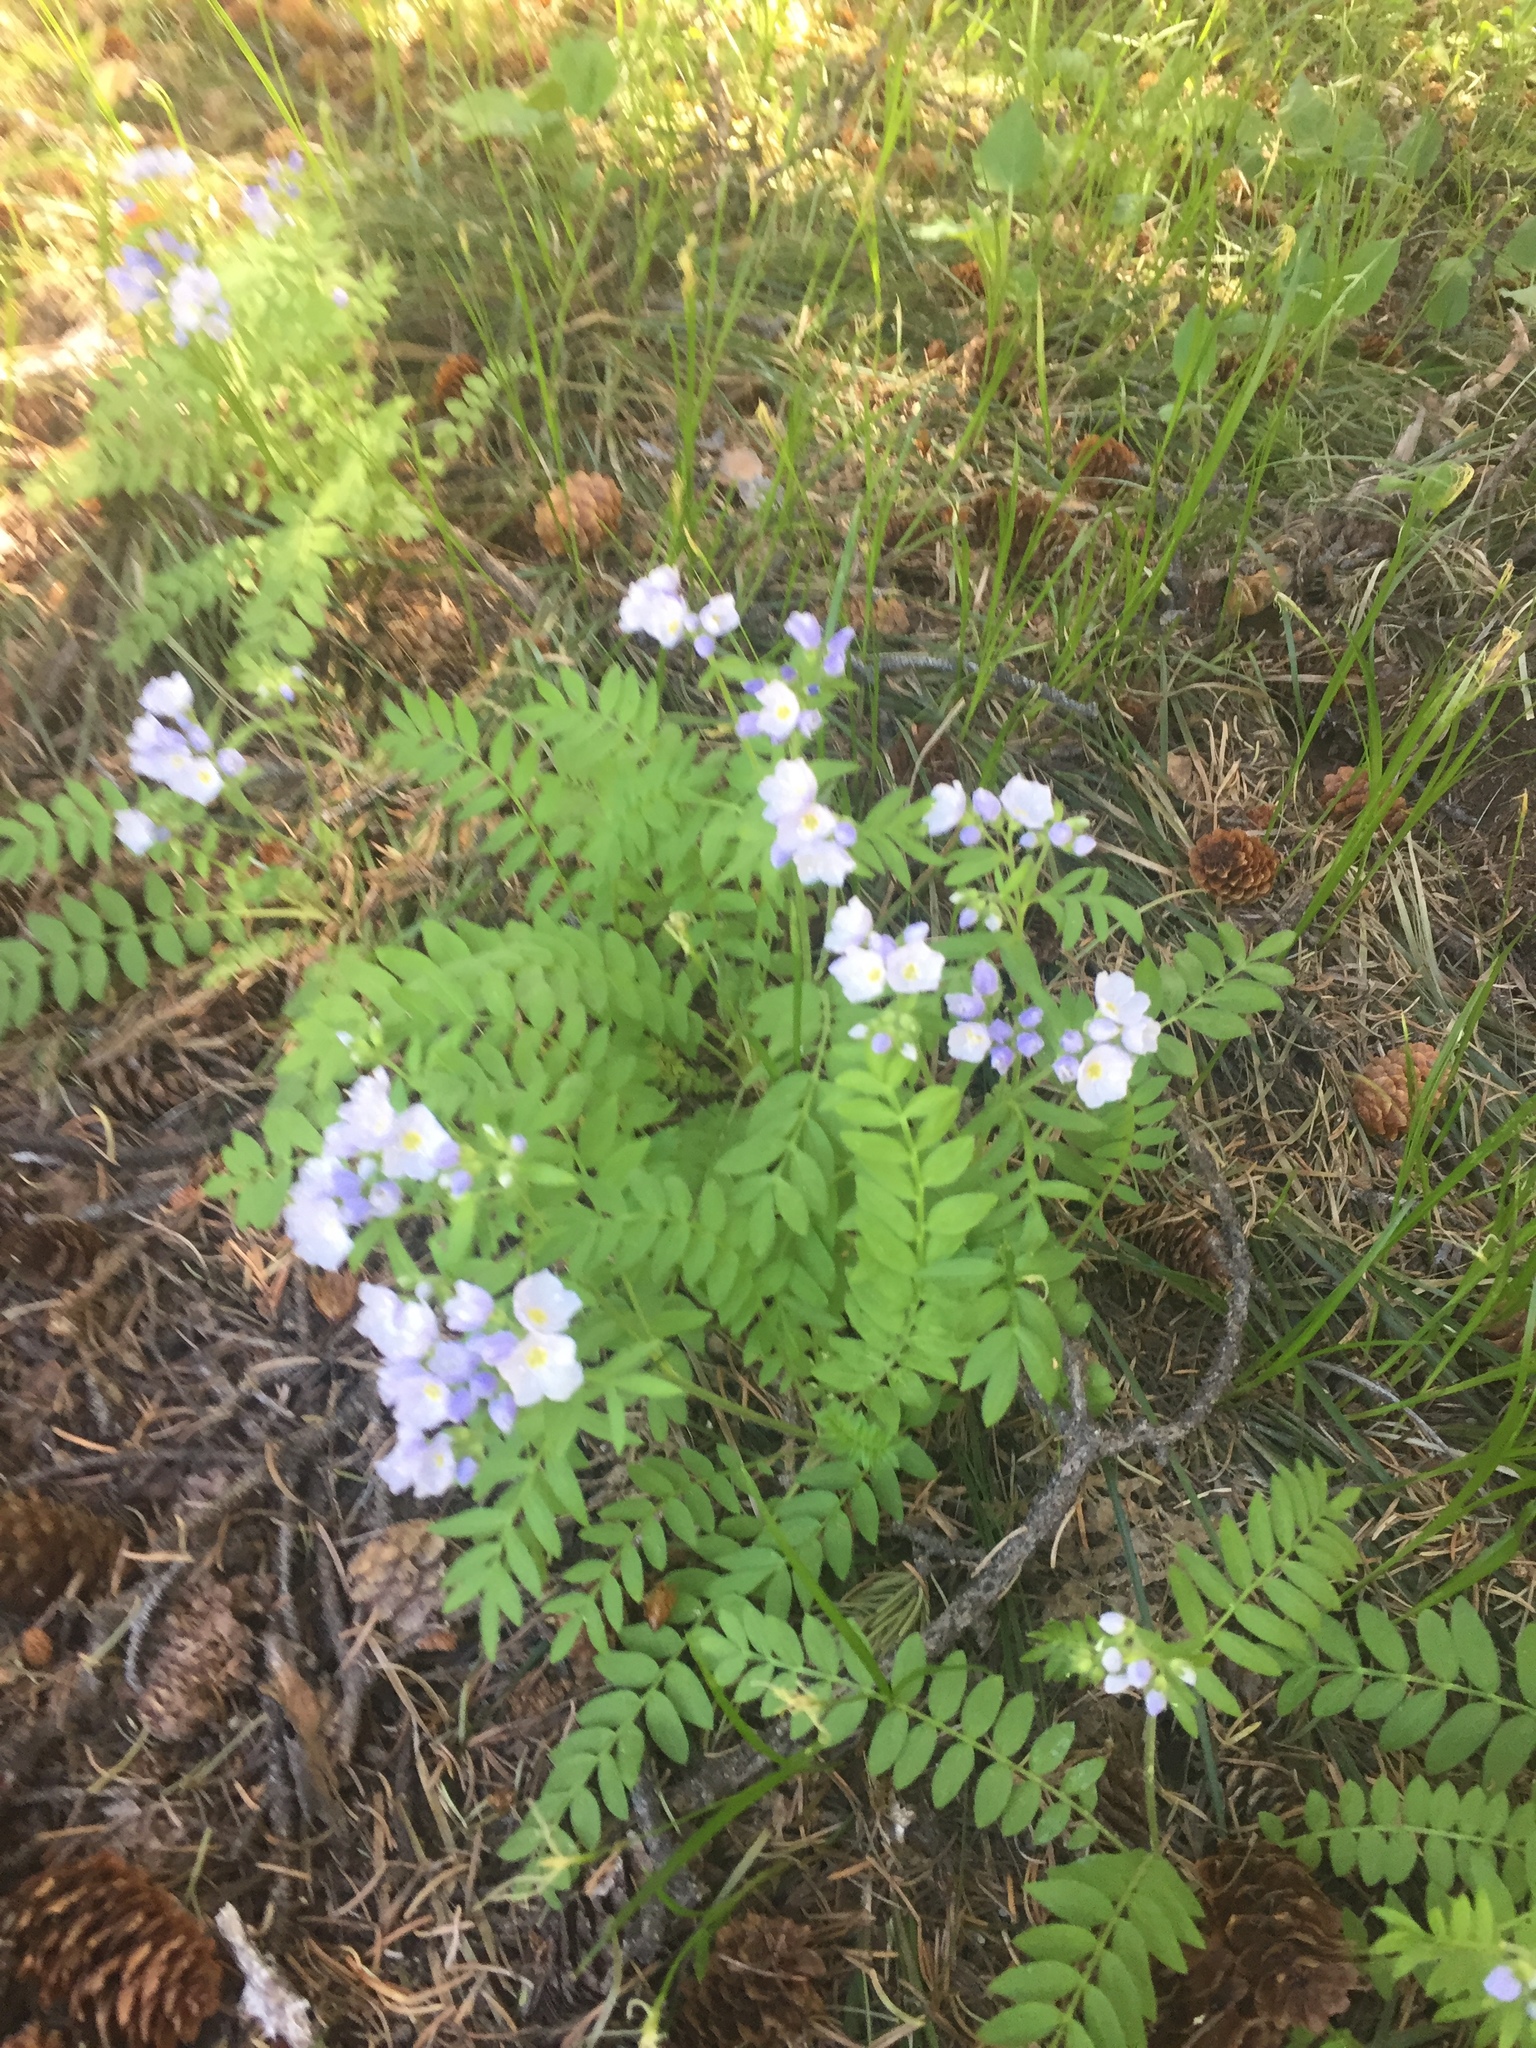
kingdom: Plantae
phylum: Tracheophyta
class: Magnoliopsida
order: Ericales
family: Polemoniaceae
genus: Polemonium
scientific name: Polemonium pulcherrimum
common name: Short jacob's-ladder
